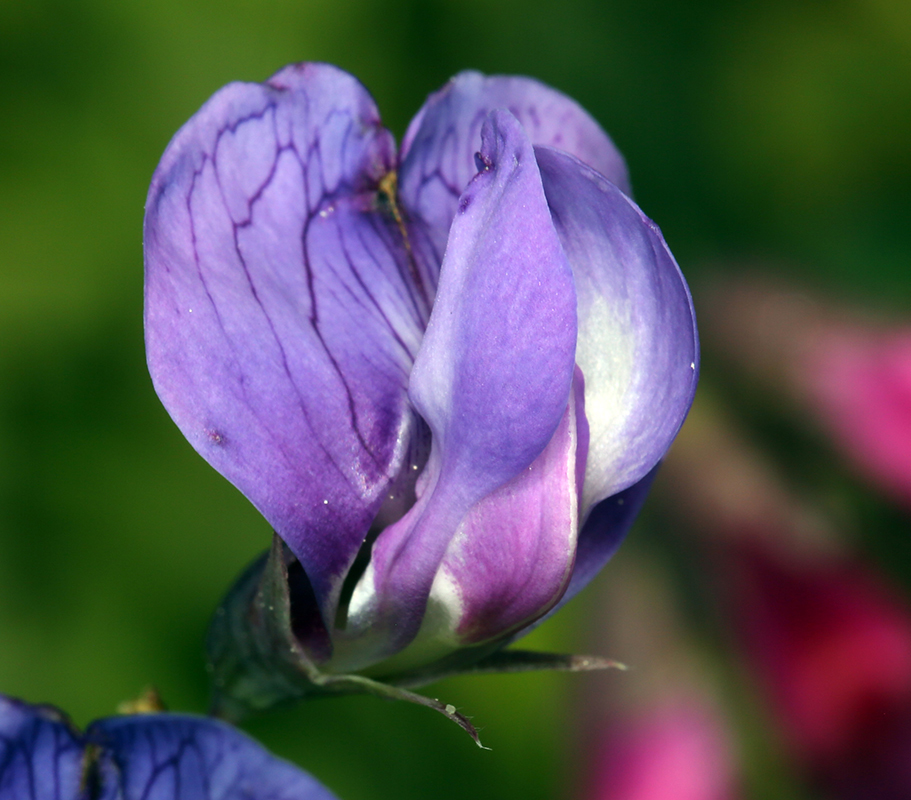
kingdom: Plantae
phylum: Tracheophyta
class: Magnoliopsida
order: Fabales
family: Fabaceae
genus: Lathyrus
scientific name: Lathyrus japonicus
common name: Sea pea
